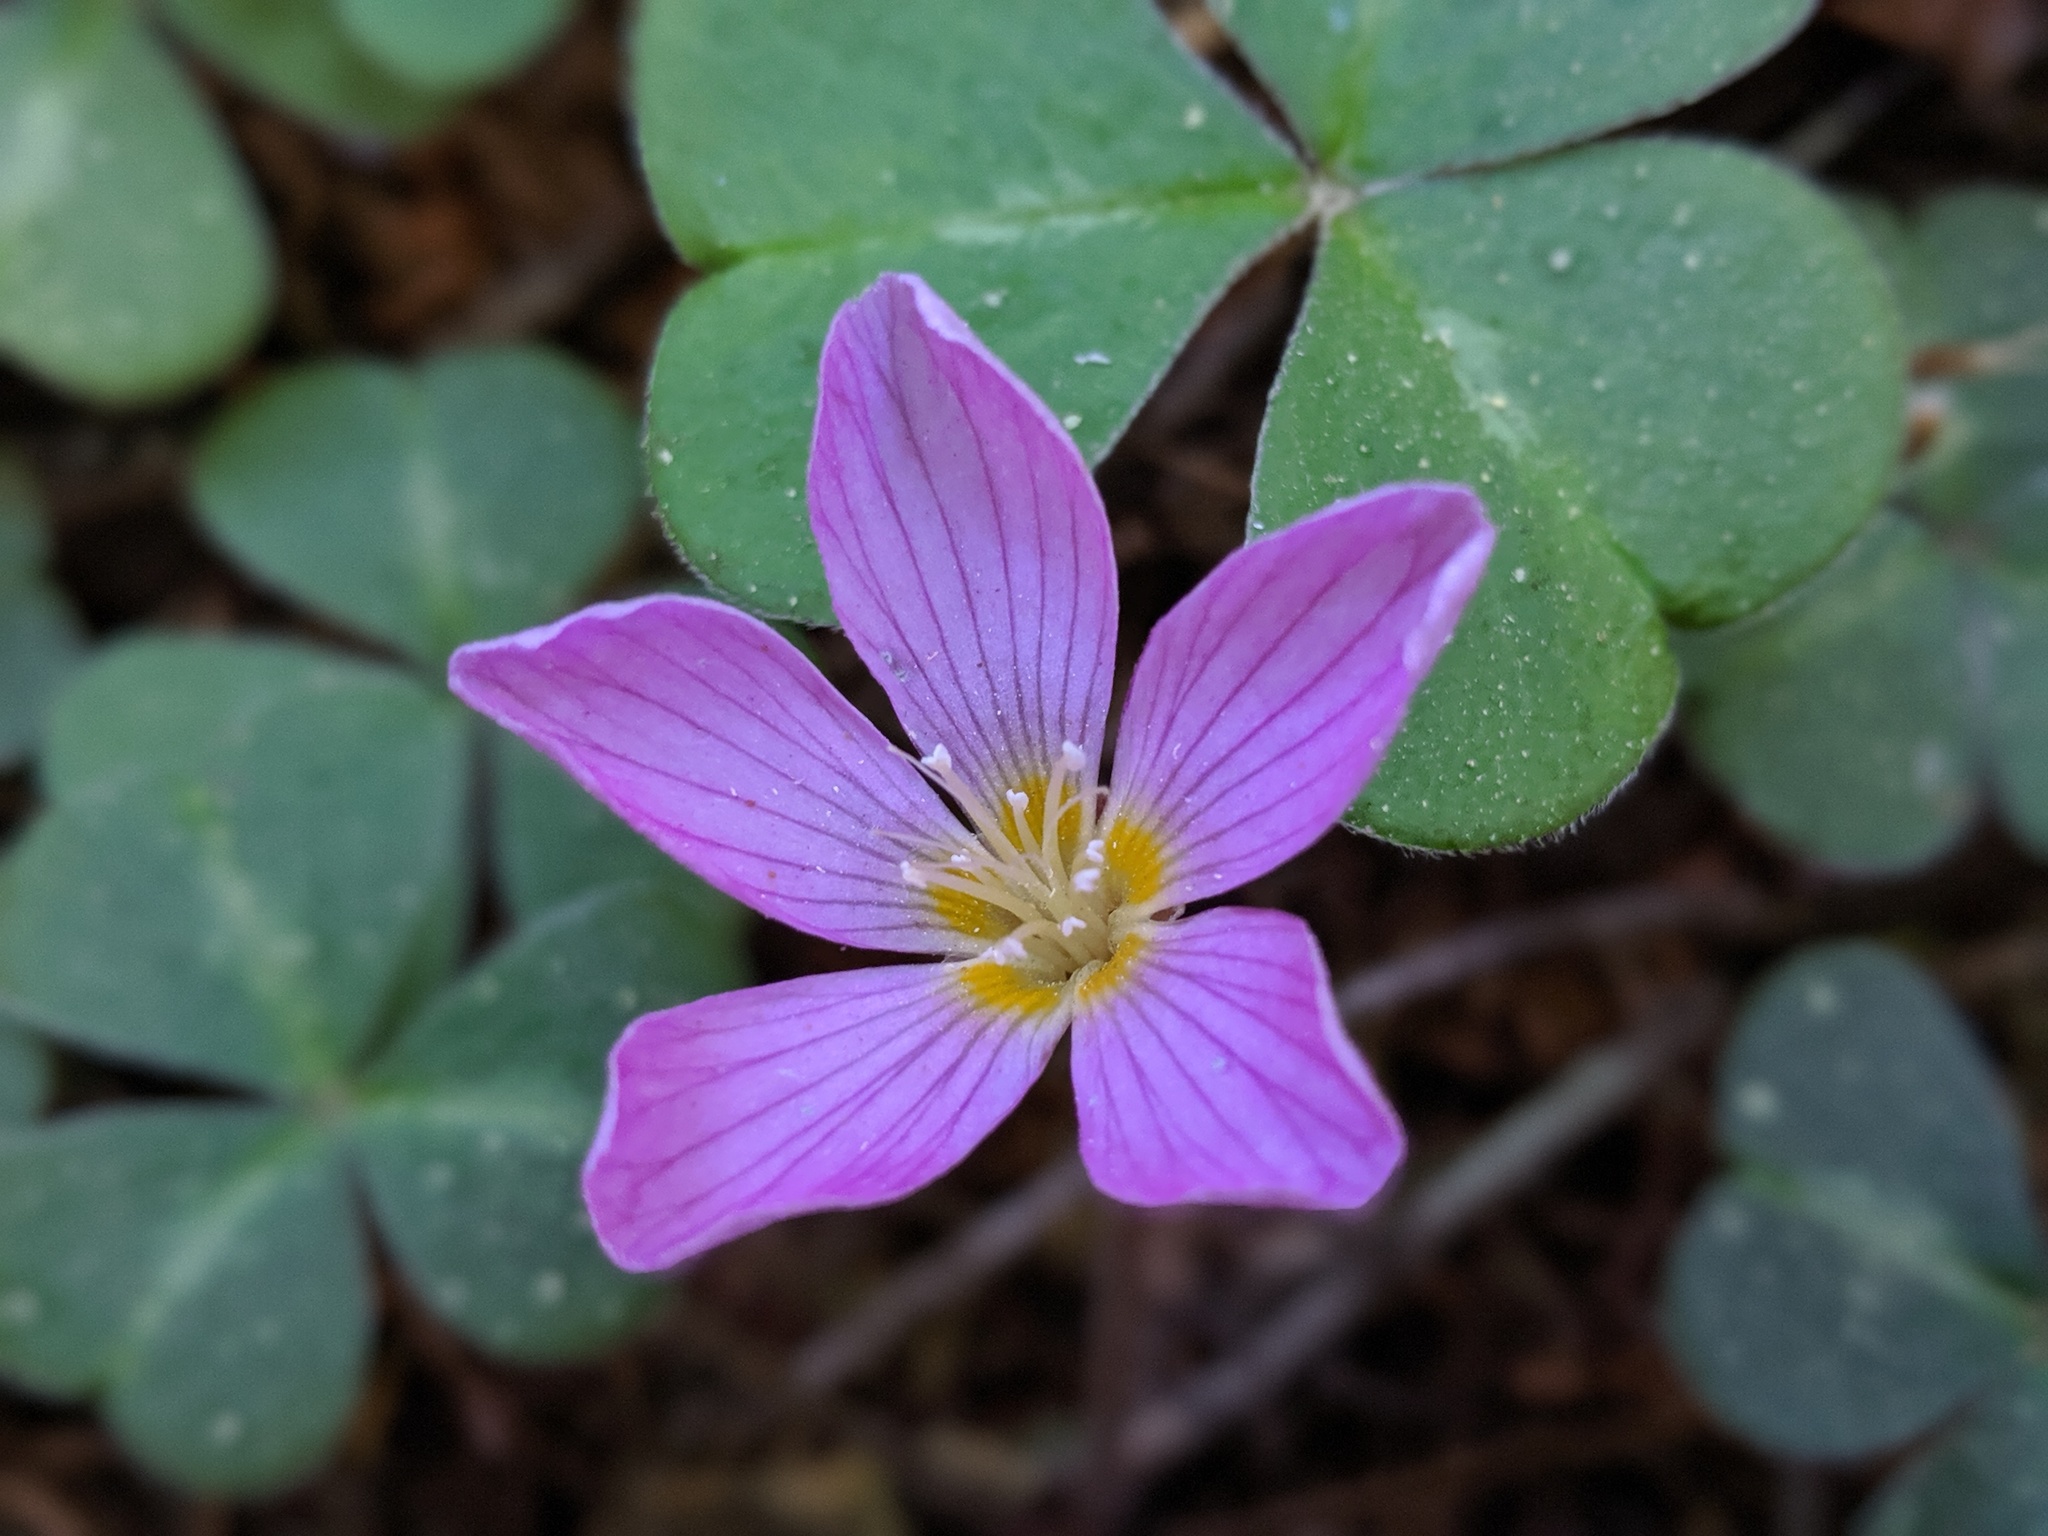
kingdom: Plantae
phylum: Tracheophyta
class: Magnoliopsida
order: Oxalidales
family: Oxalidaceae
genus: Oxalis
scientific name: Oxalis oregana
